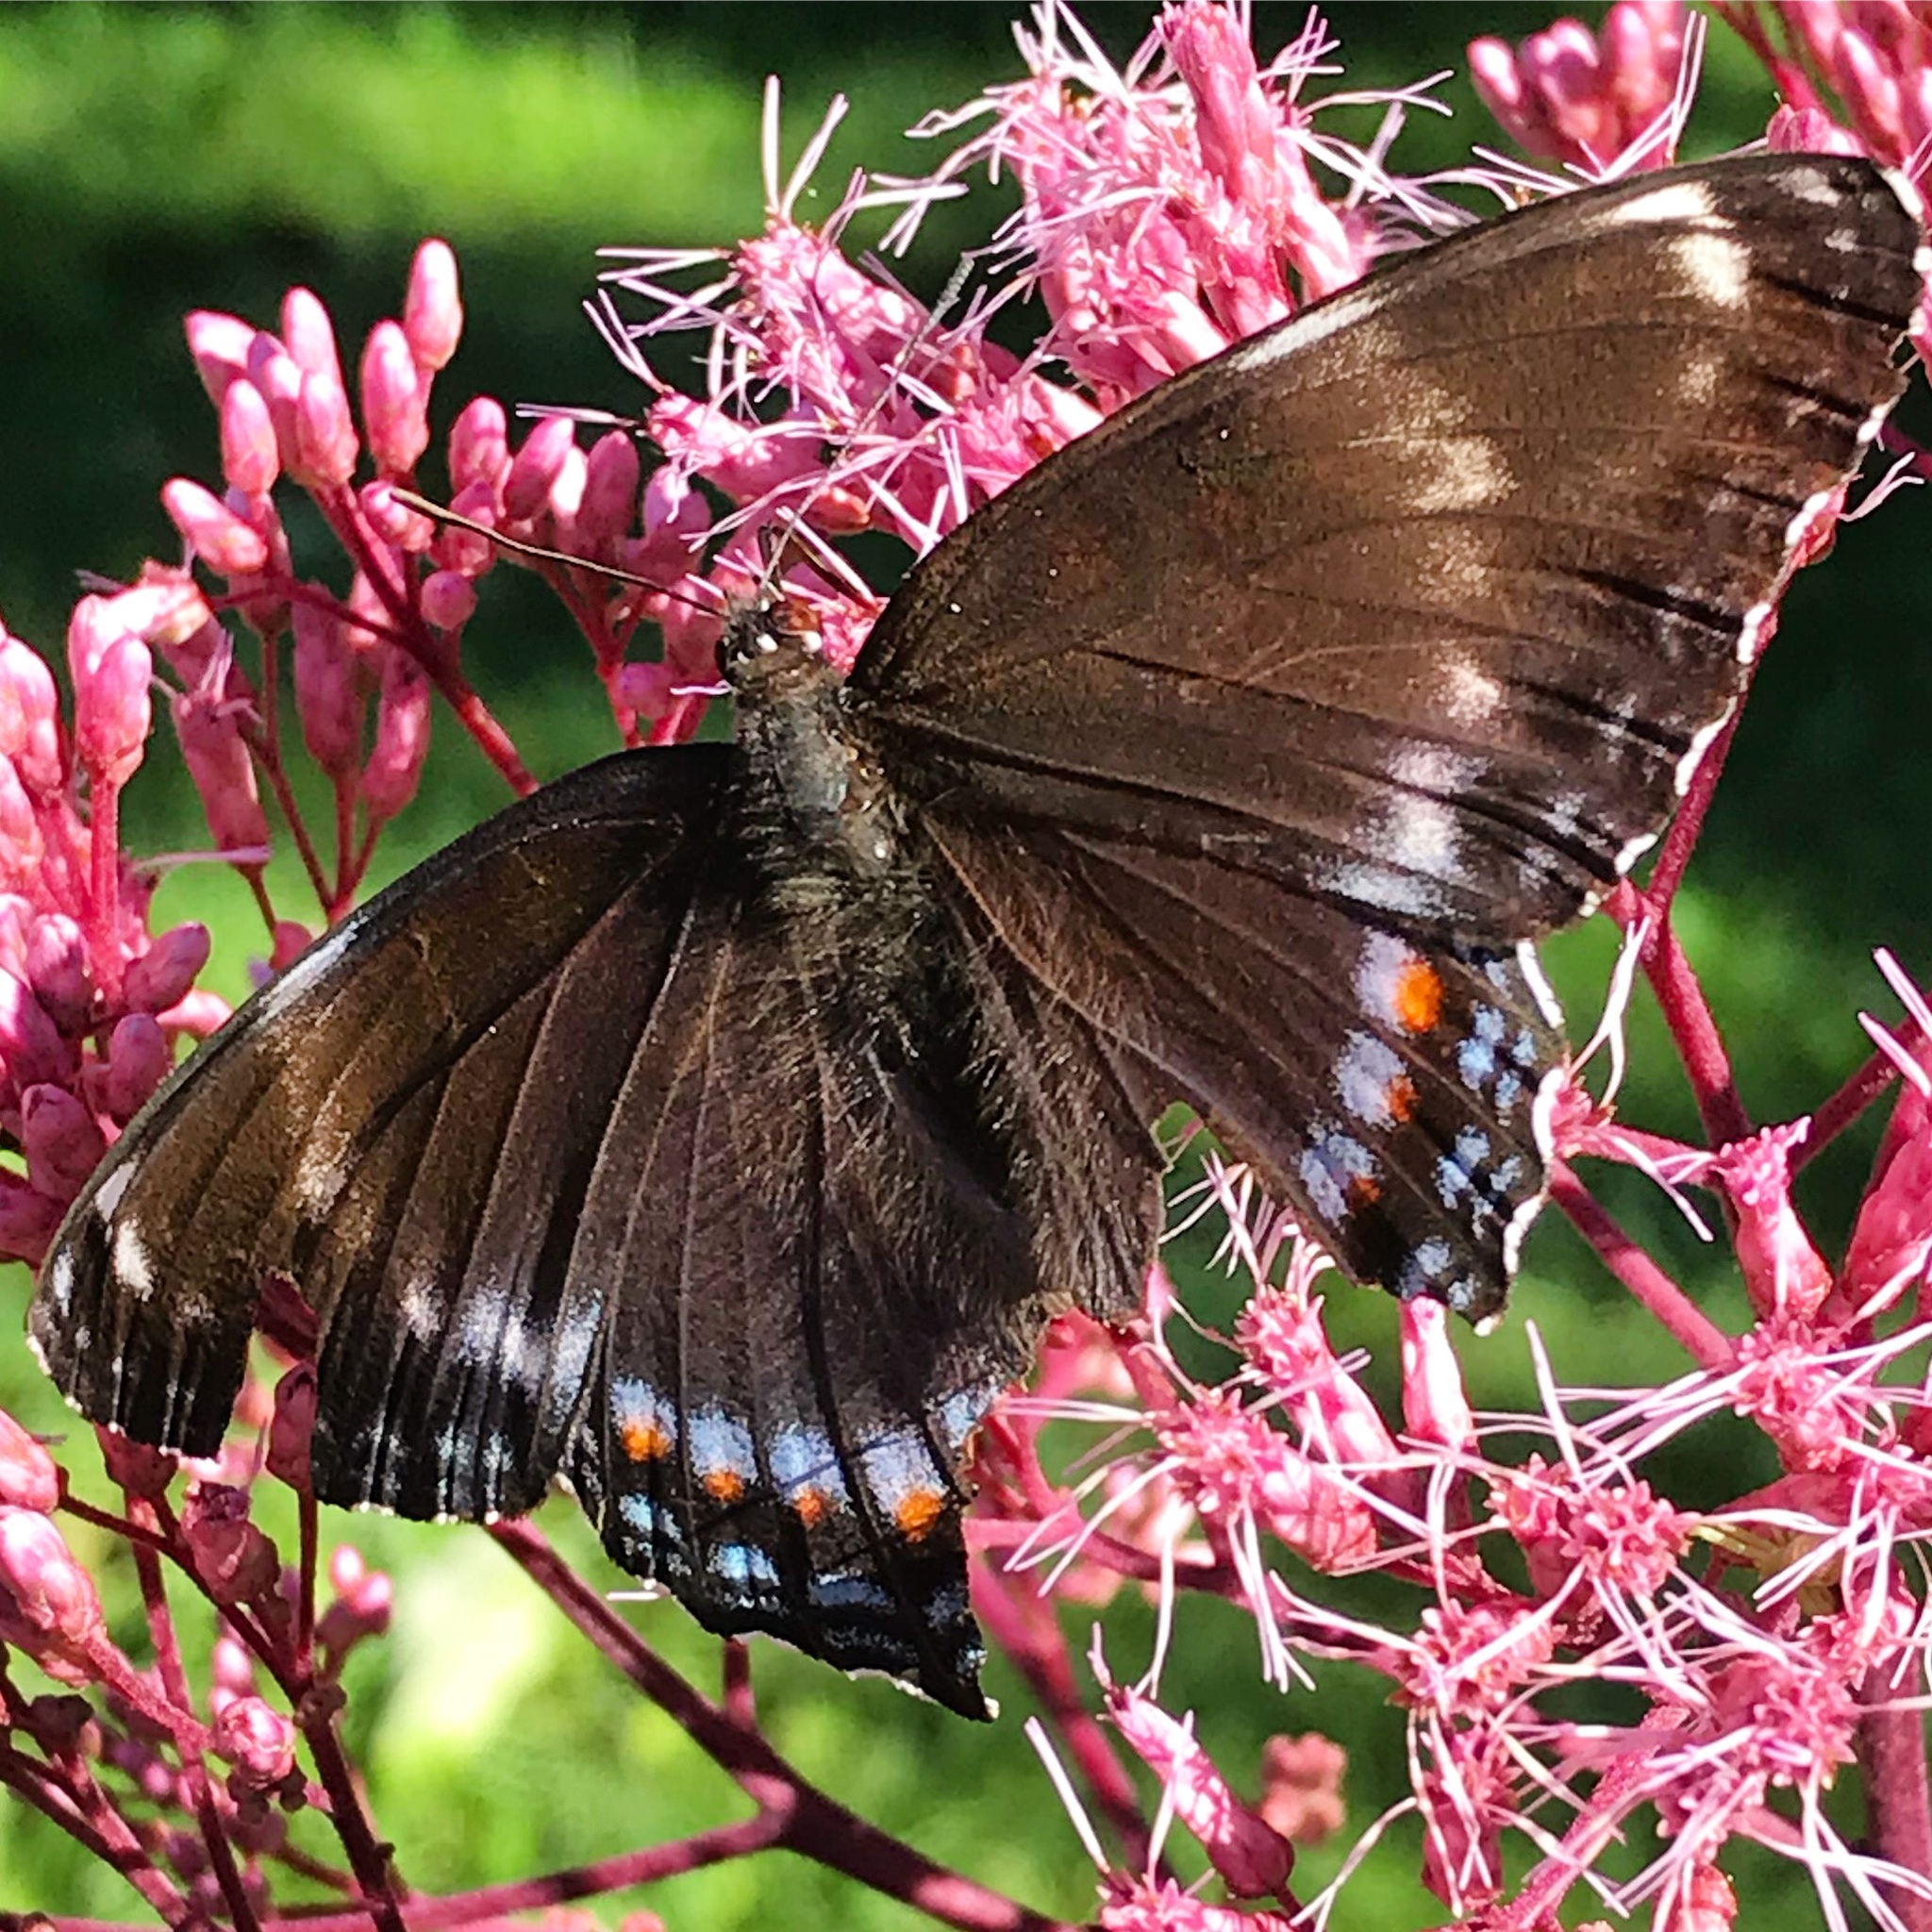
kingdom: Animalia
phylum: Arthropoda
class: Insecta
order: Lepidoptera
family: Nymphalidae
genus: Limenitis
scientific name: Limenitis arthemis
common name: Red-spotted admiral
